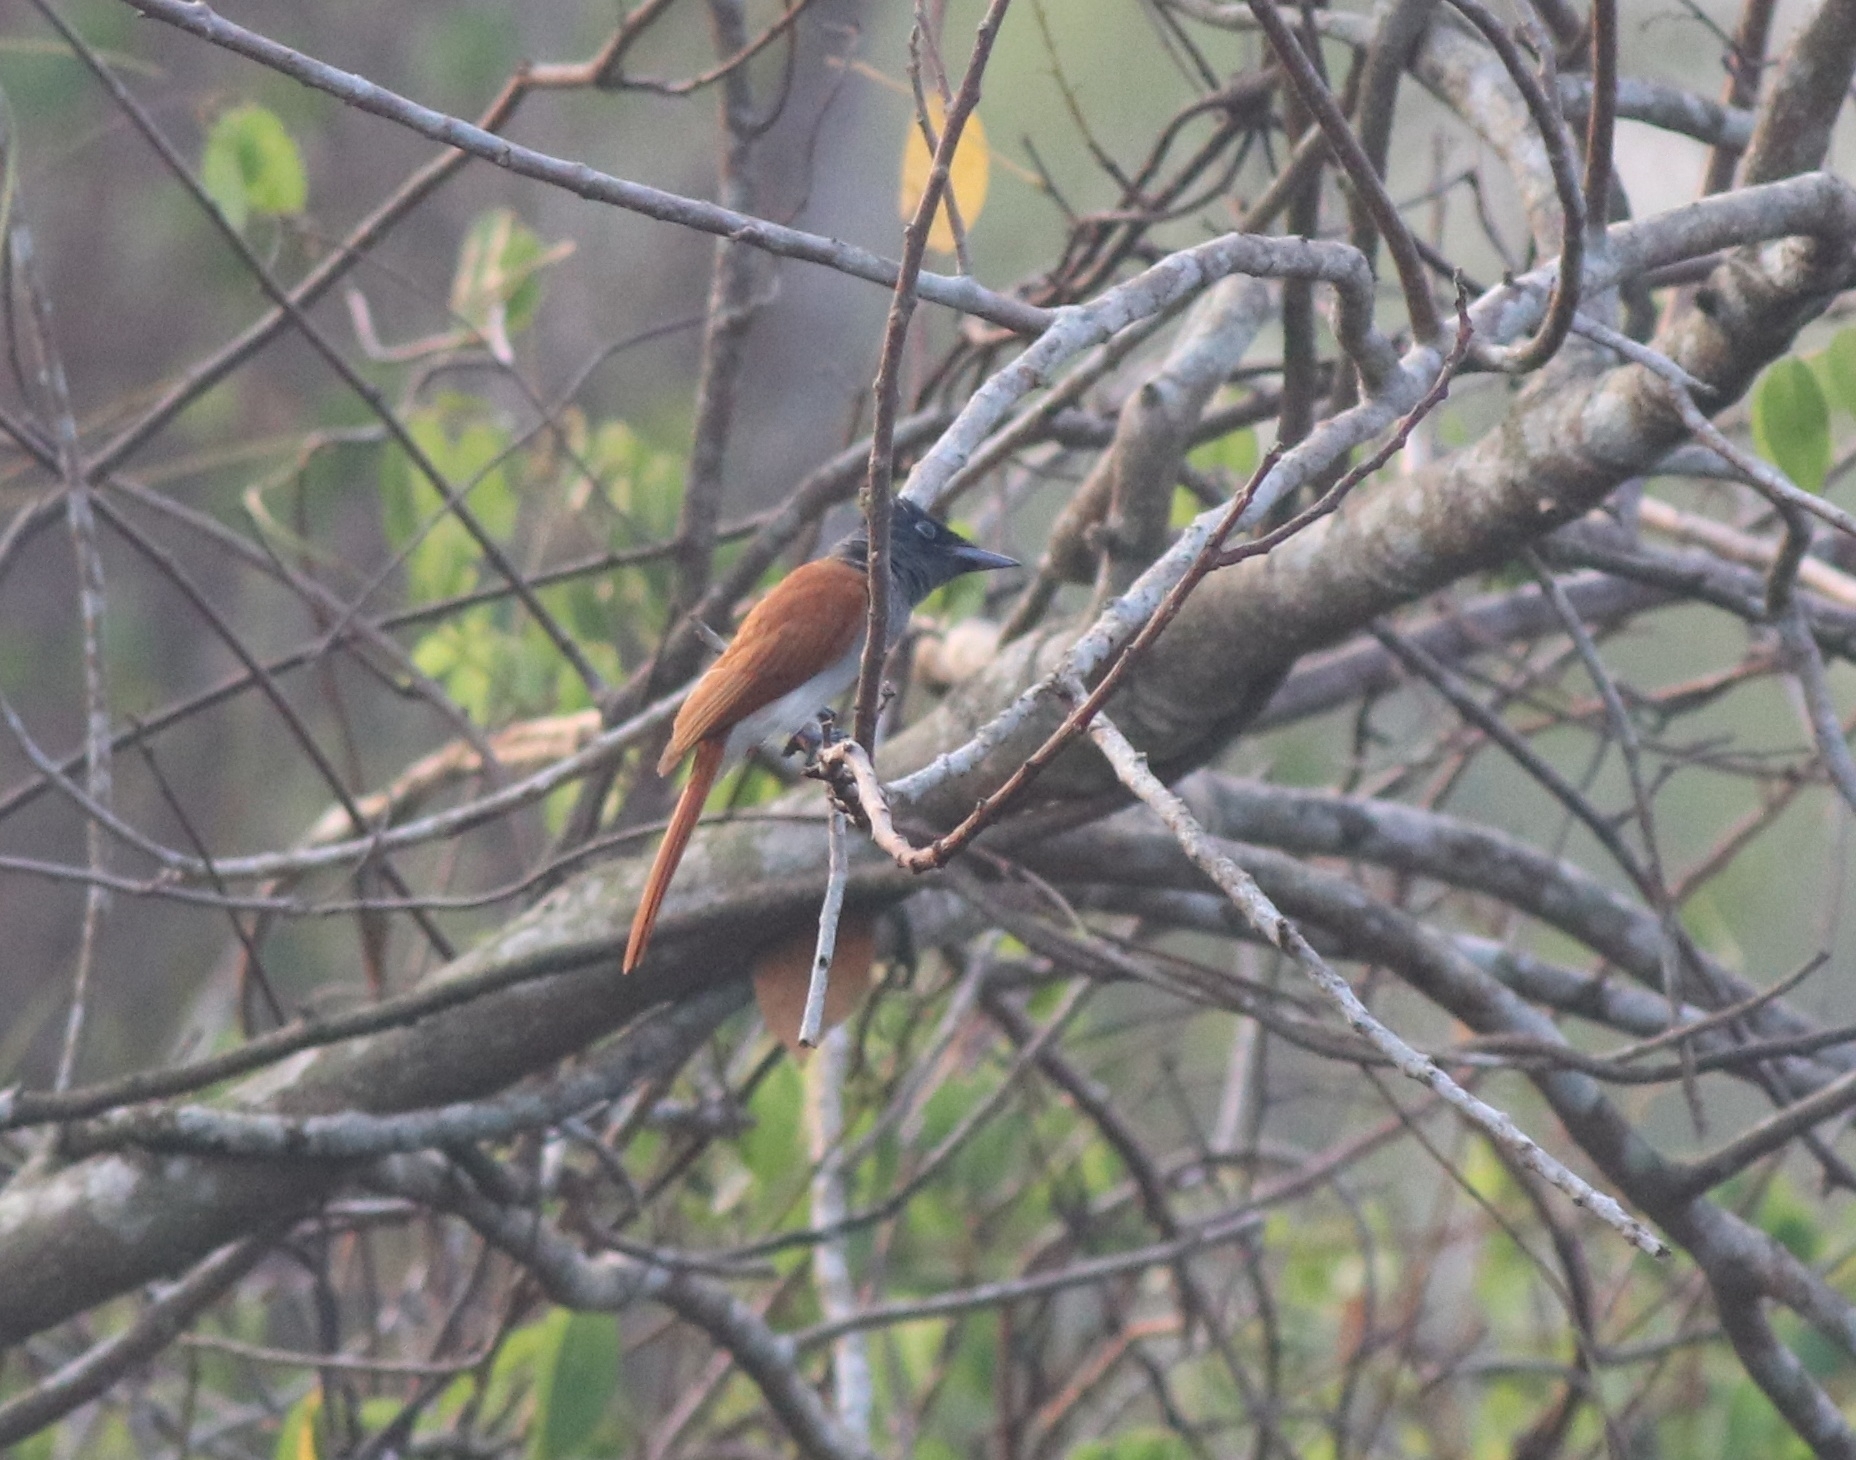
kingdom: Animalia
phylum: Chordata
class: Aves
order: Passeriformes
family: Monarchidae
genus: Terpsiphone
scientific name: Terpsiphone paradisi
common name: Indian paradise flycatcher
